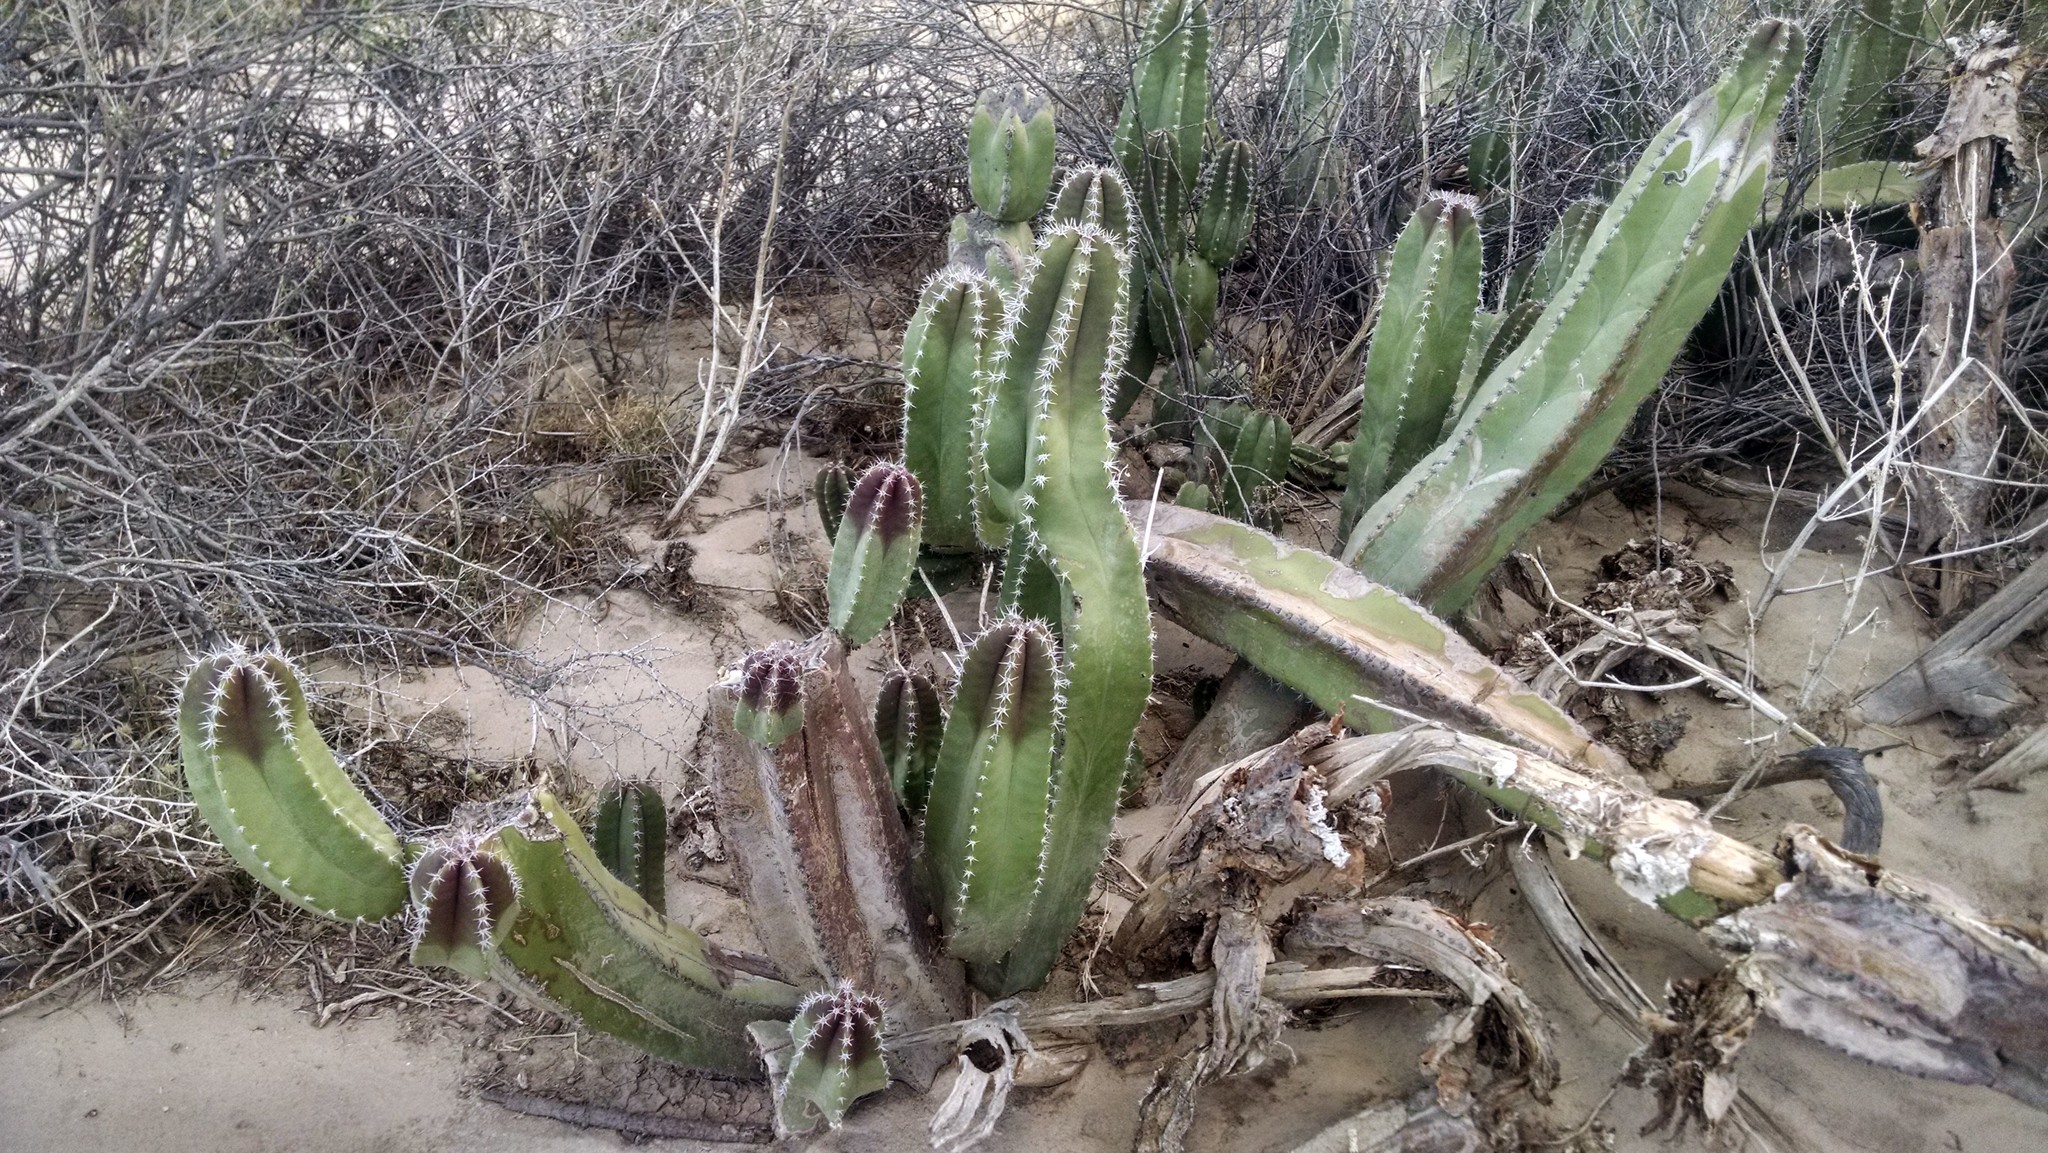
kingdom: Plantae
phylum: Tracheophyta
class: Magnoliopsida
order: Caryophyllales
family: Cactaceae
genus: Pachycereus
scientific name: Pachycereus schottii
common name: Senita cactus
